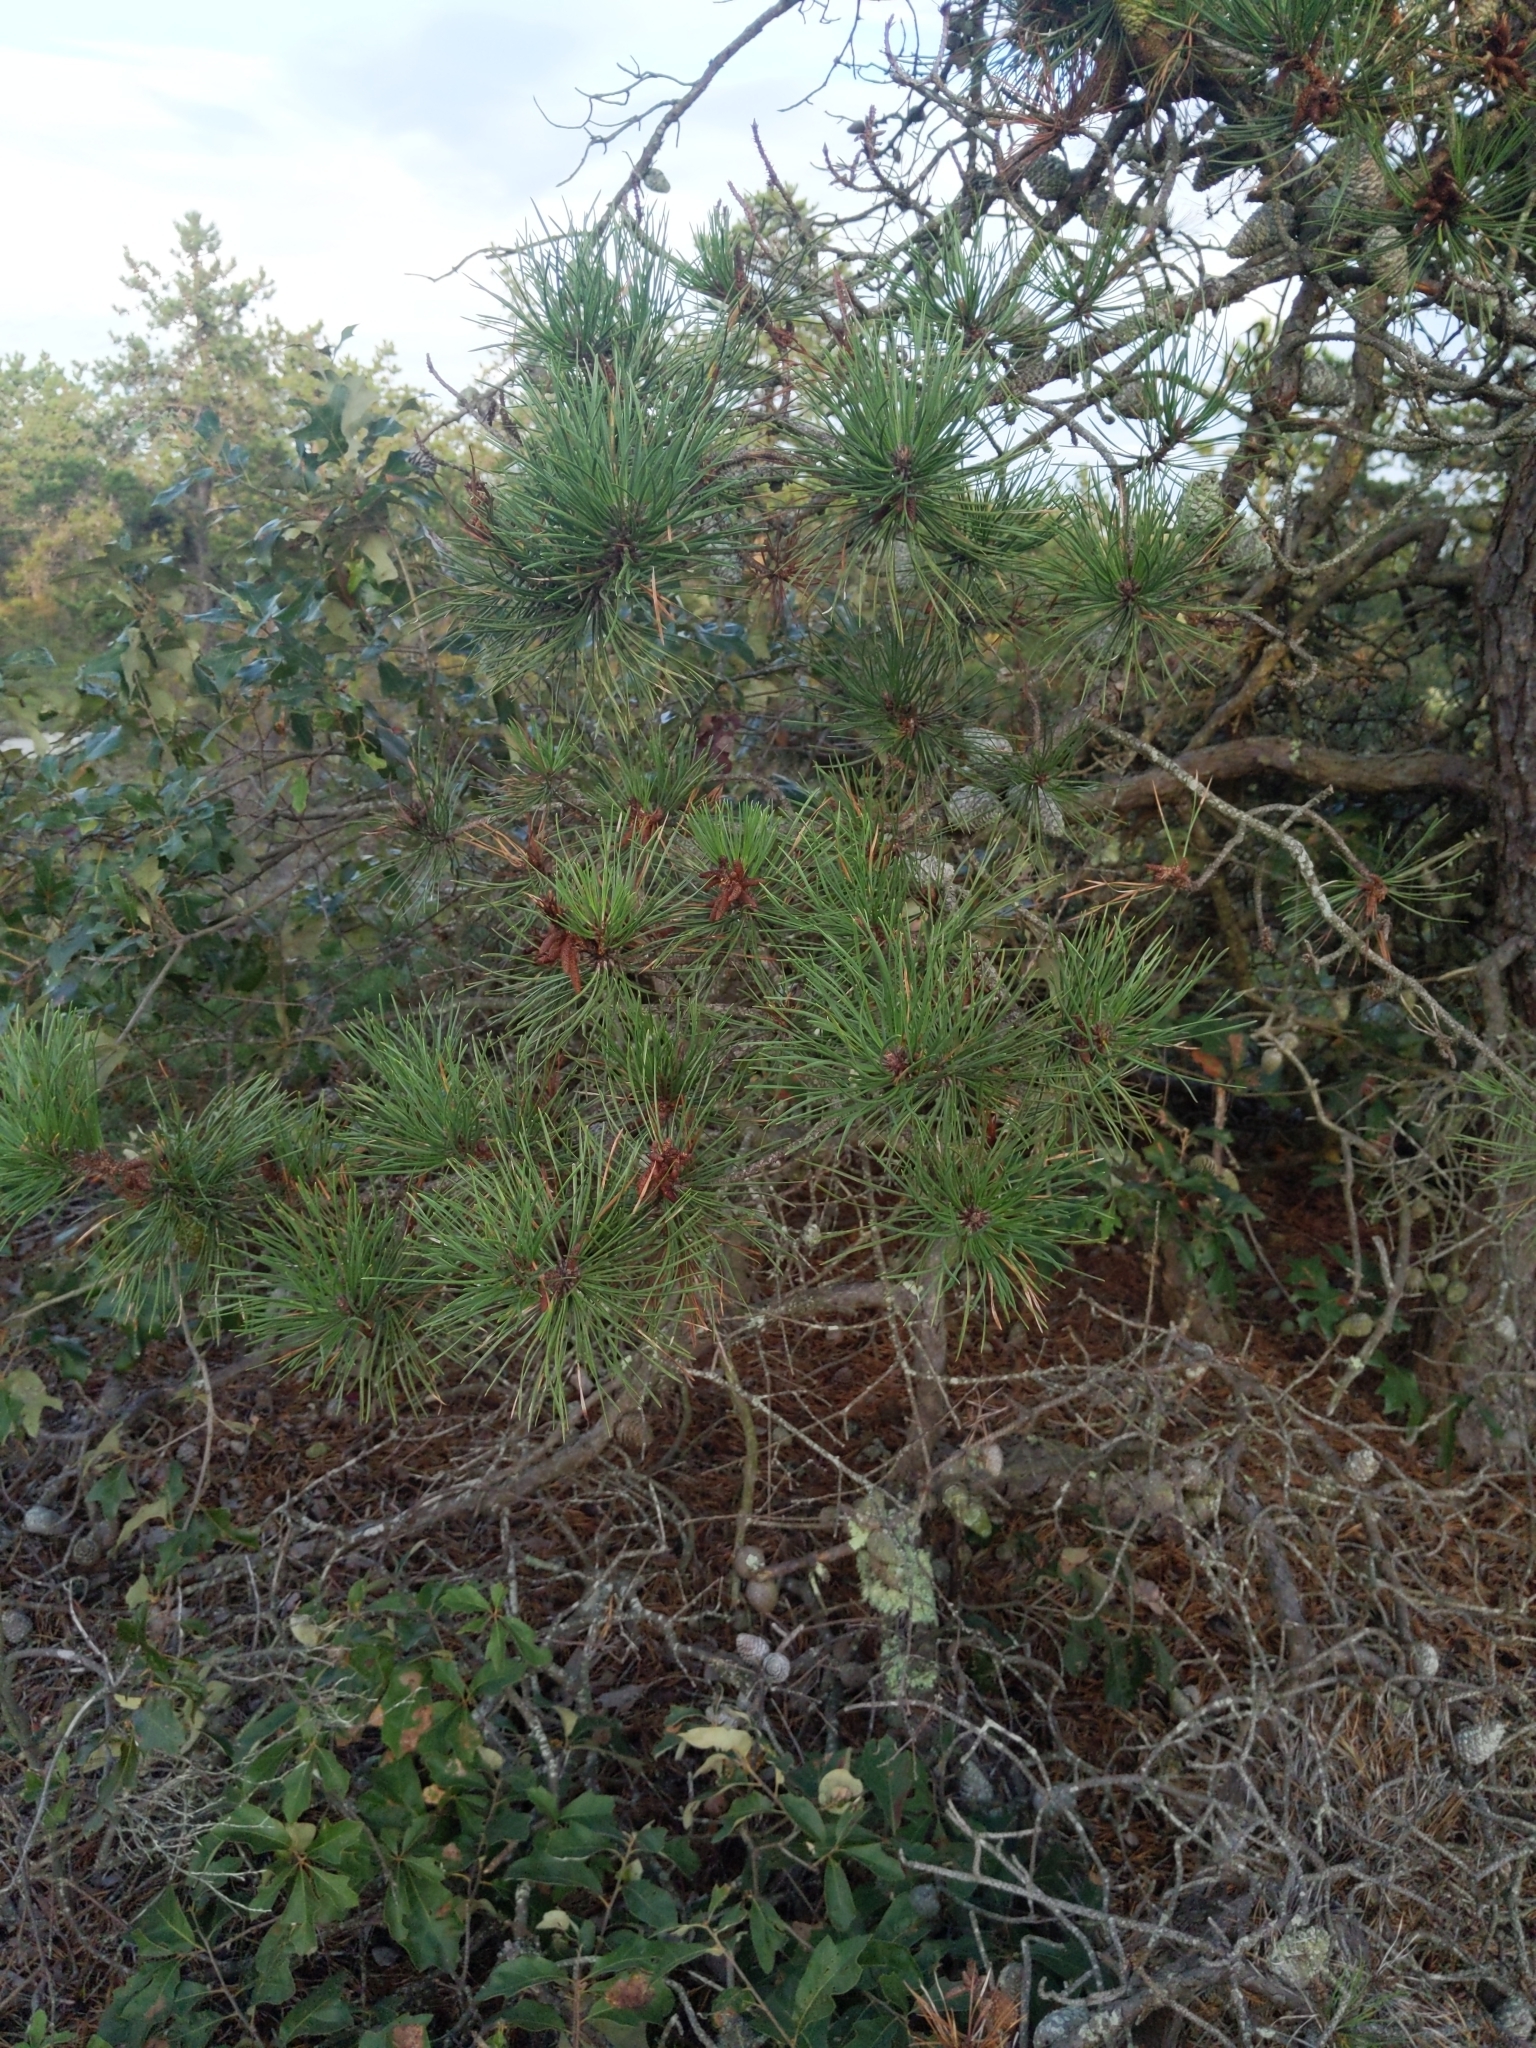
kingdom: Plantae
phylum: Tracheophyta
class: Pinopsida
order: Pinales
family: Pinaceae
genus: Pinus
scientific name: Pinus rigida
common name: Pitch pine
